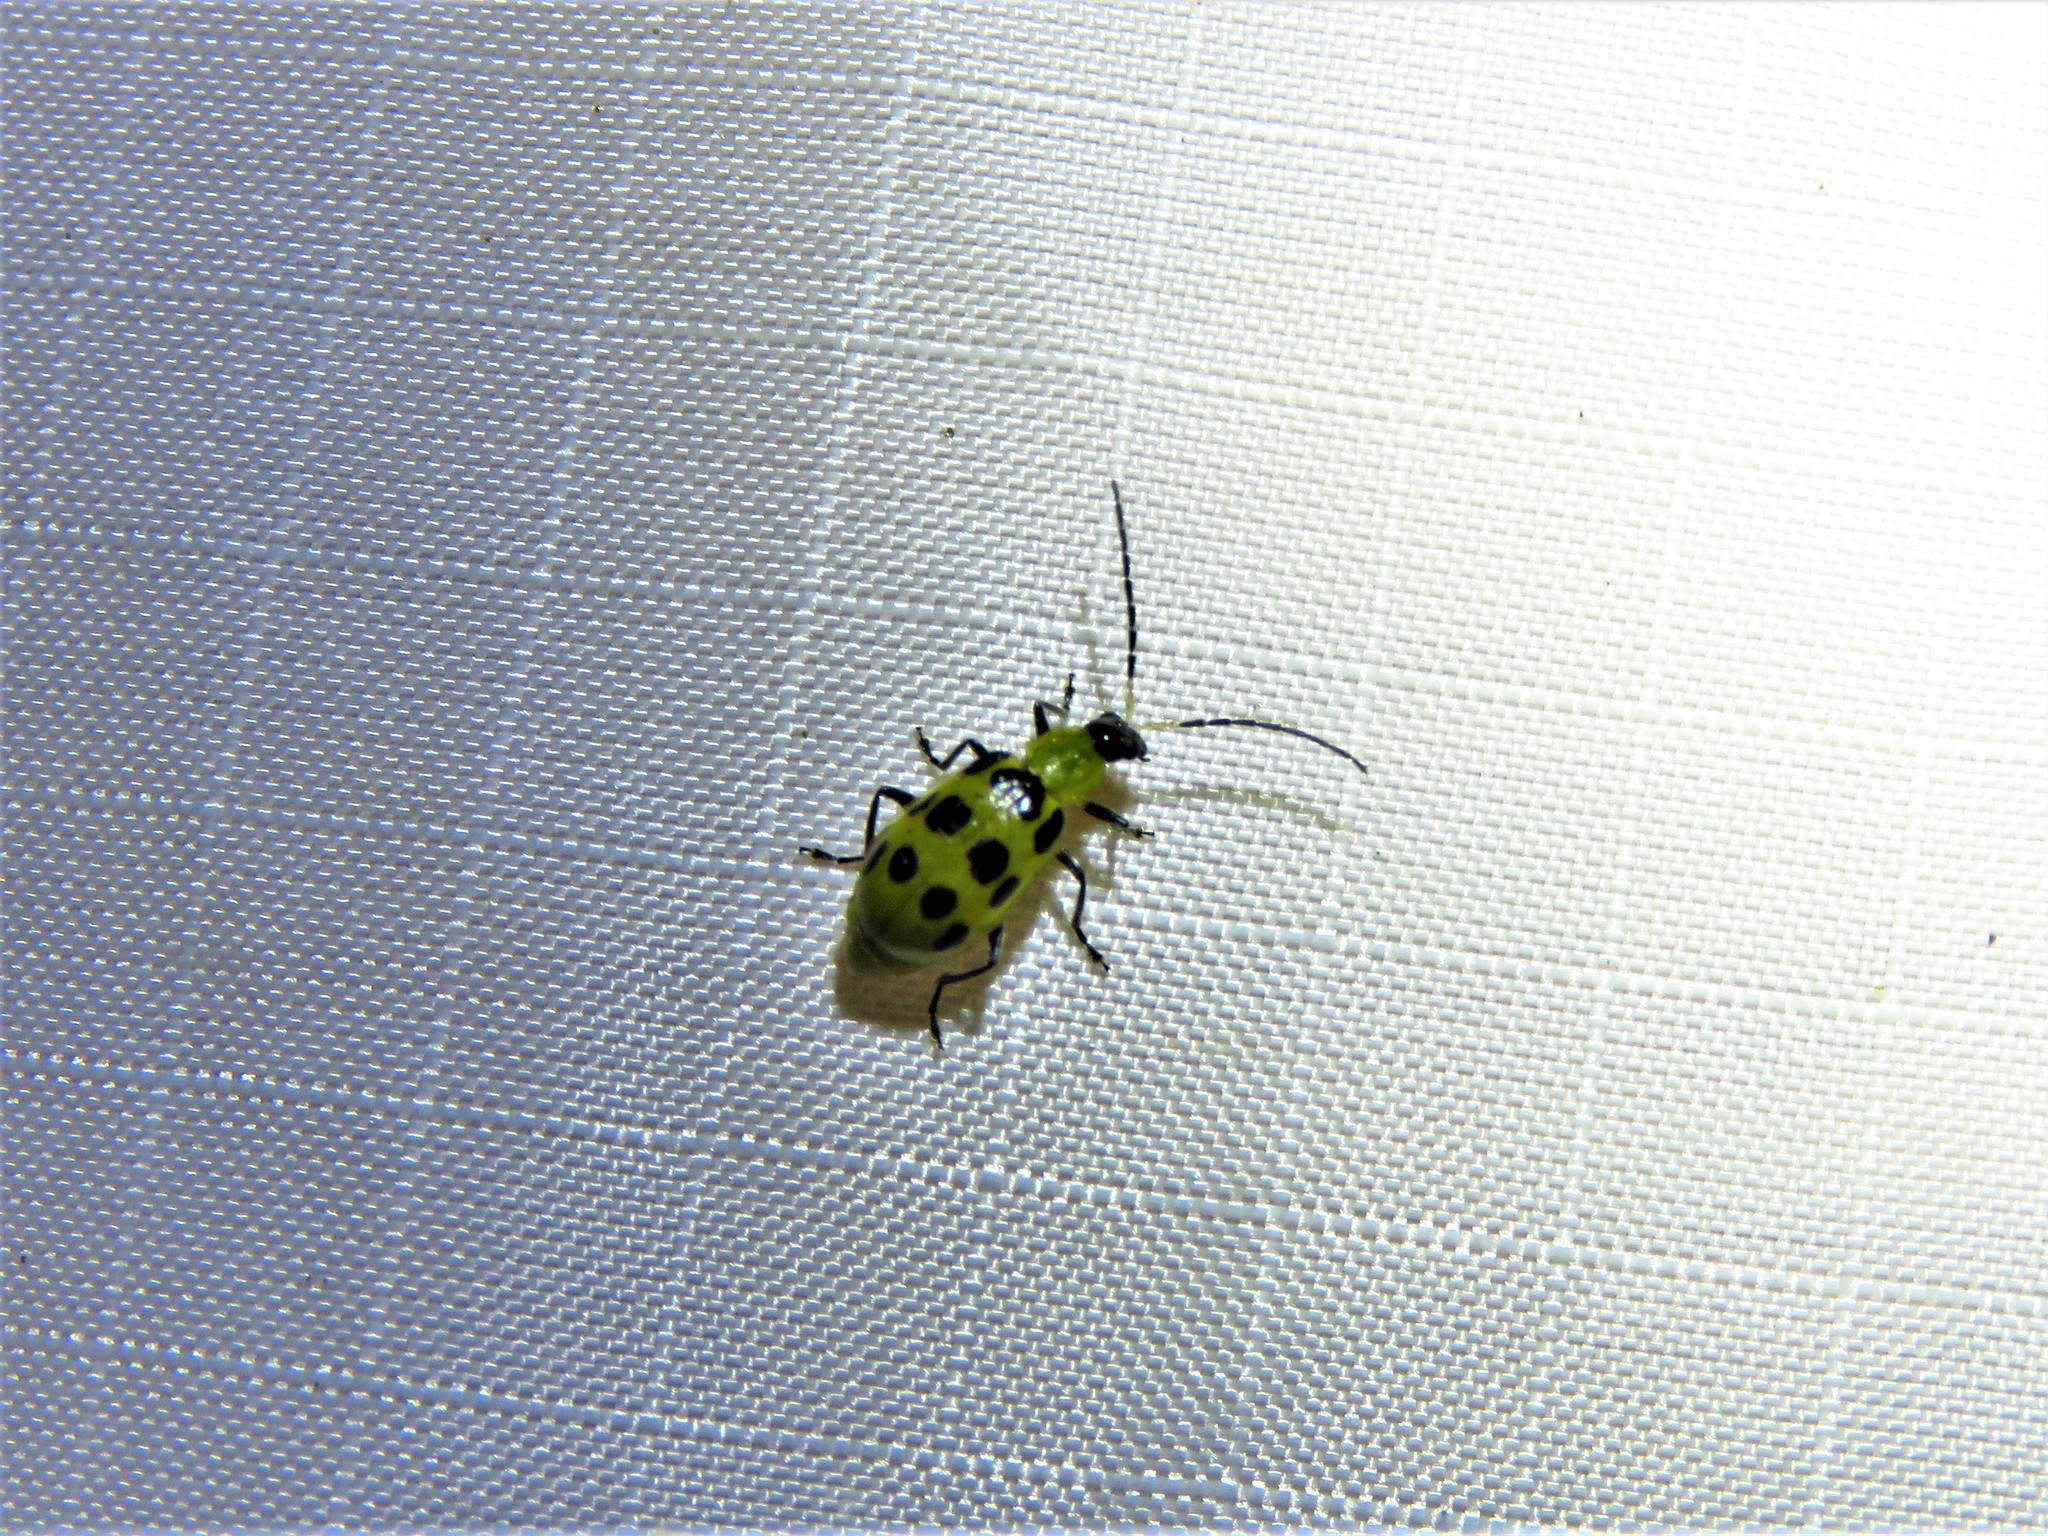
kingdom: Animalia
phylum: Arthropoda
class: Insecta
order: Coleoptera
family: Chrysomelidae
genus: Diabrotica
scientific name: Diabrotica undecimpunctata
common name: Spotted cucumber beetle
